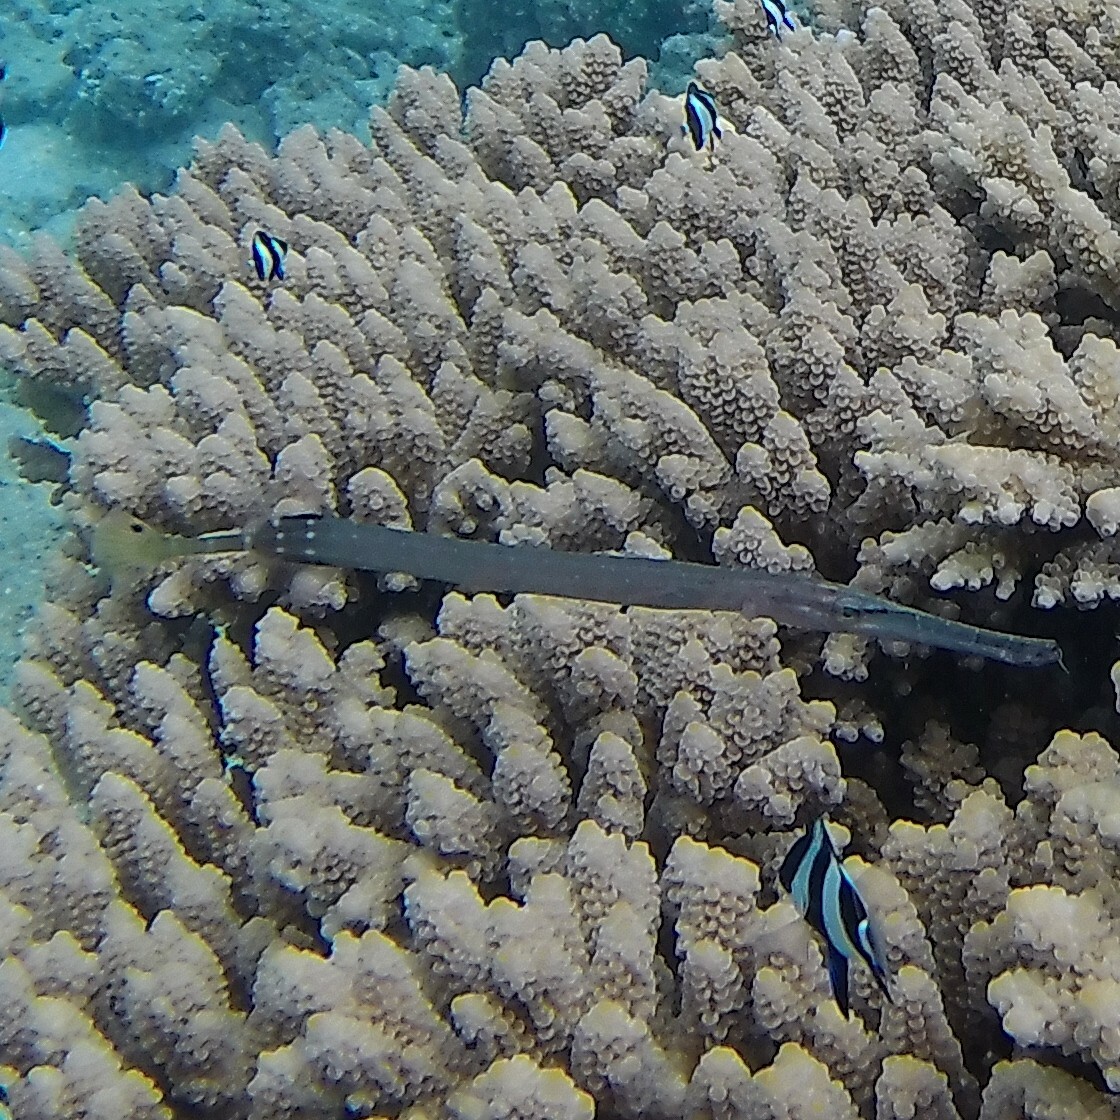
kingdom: Animalia
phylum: Chordata
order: Syngnathiformes
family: Aulostomidae
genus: Aulostomus
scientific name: Aulostomus chinensis
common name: Chinese trumpetfish
